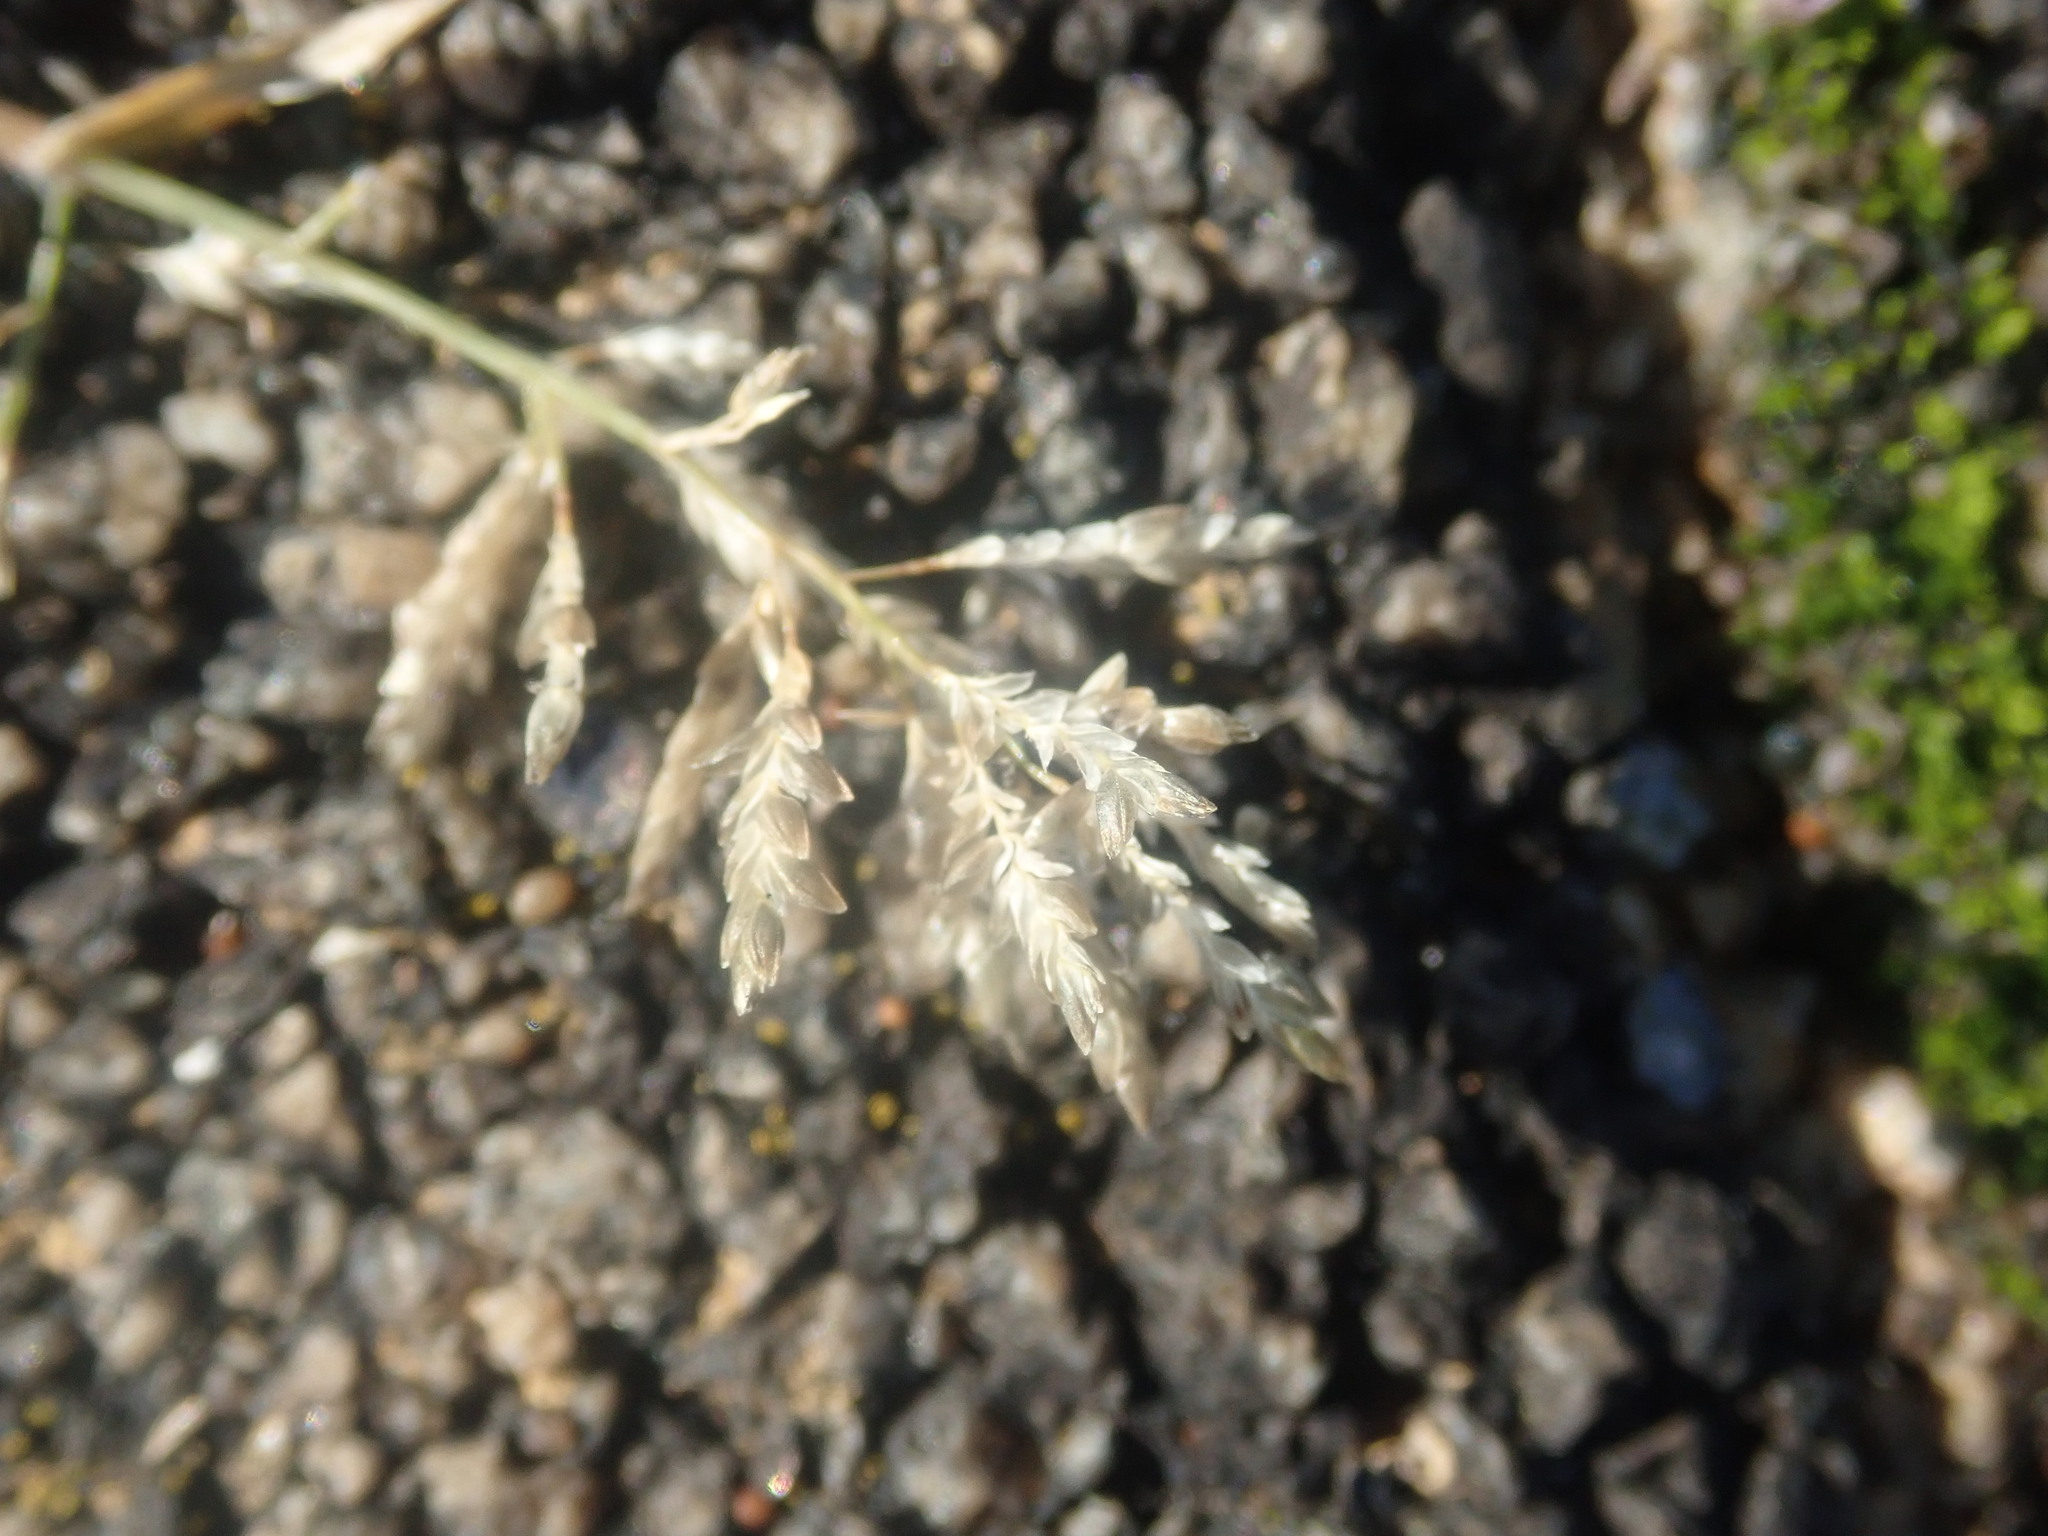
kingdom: Plantae
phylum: Tracheophyta
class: Liliopsida
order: Poales
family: Poaceae
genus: Eragrostis
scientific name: Eragrostis minor
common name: Small love-grass
